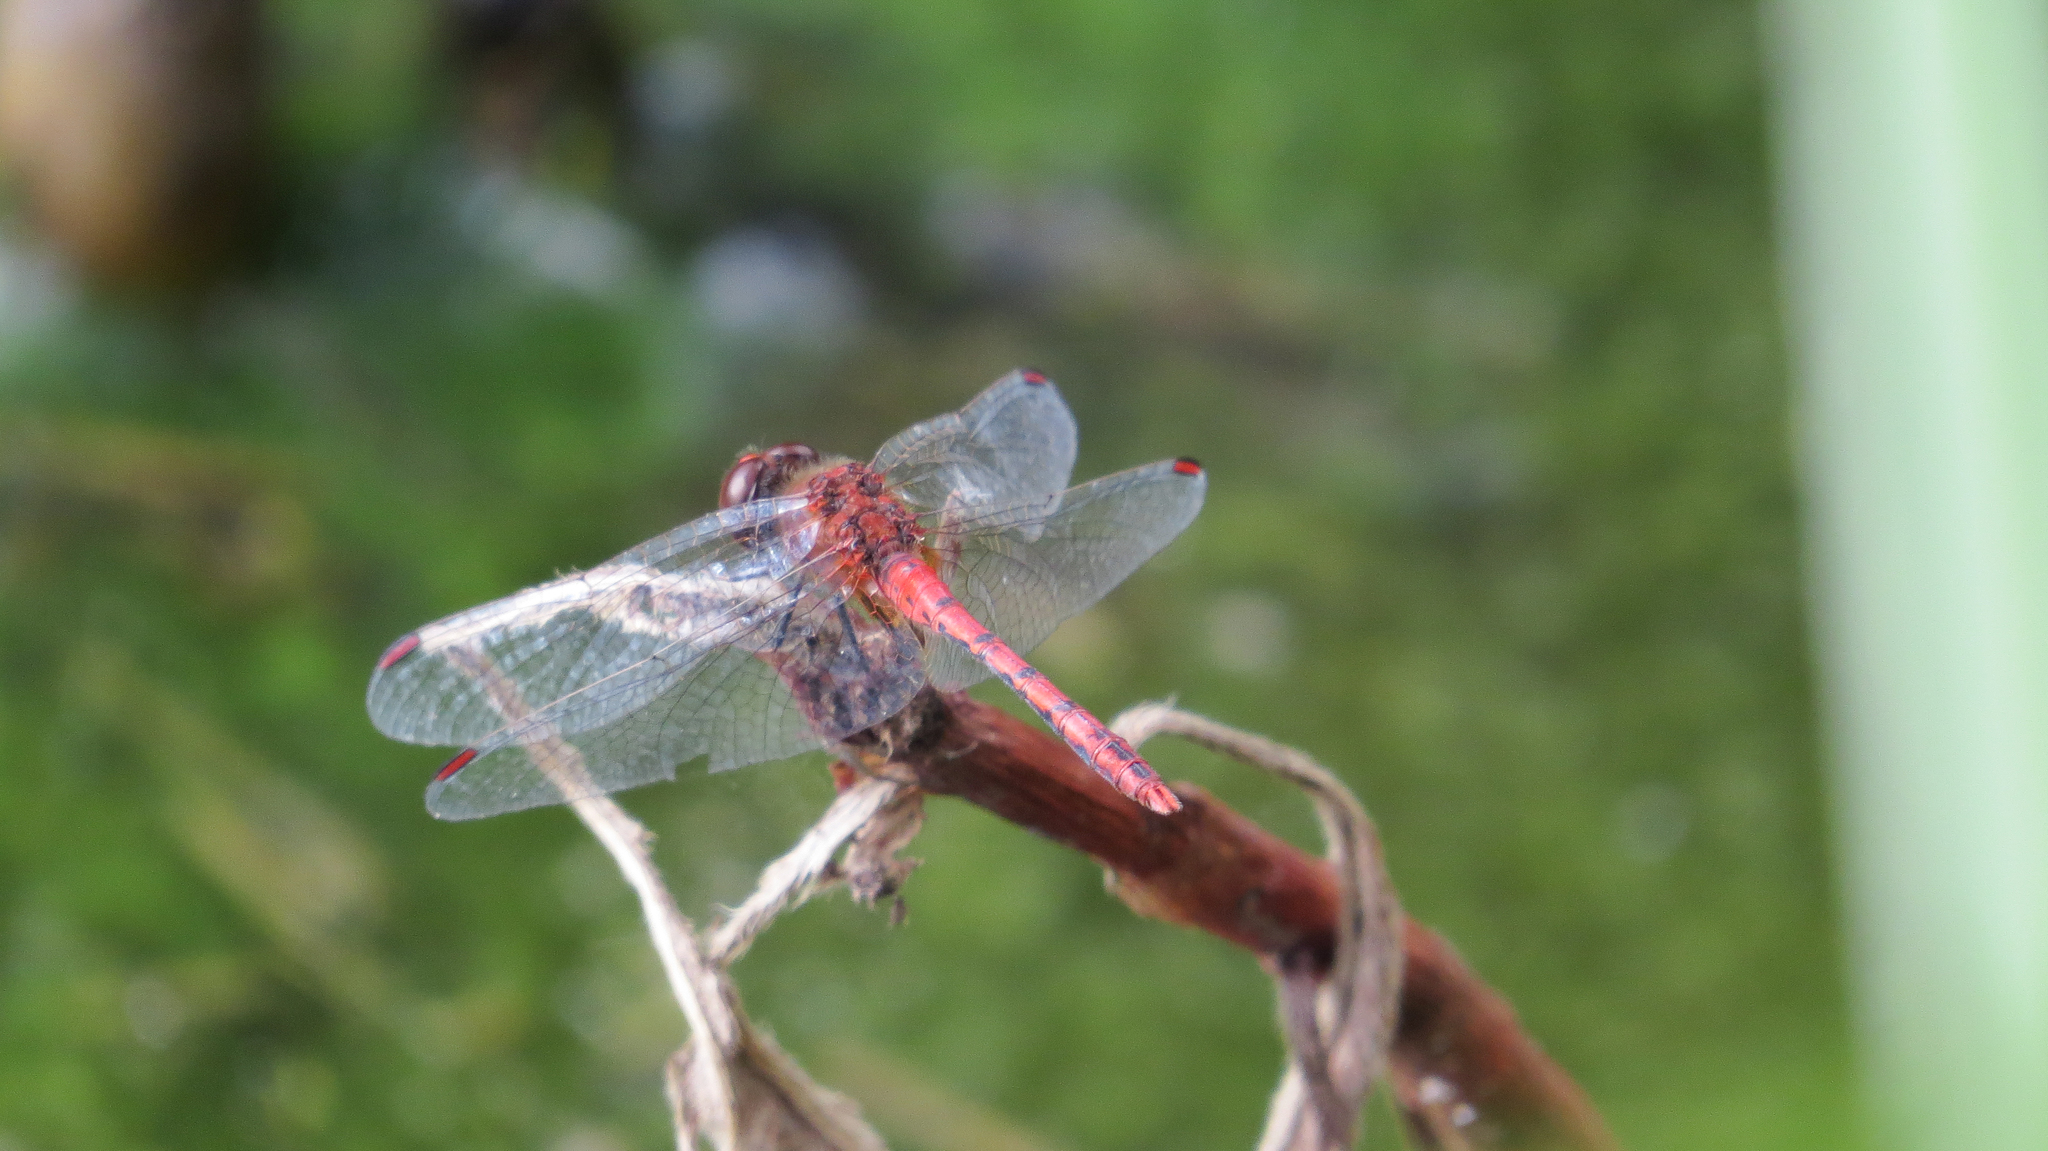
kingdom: Animalia
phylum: Arthropoda
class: Insecta
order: Odonata
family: Libellulidae
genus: Diplacodes
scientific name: Diplacodes bipunctata
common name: Red percher dragonfly
